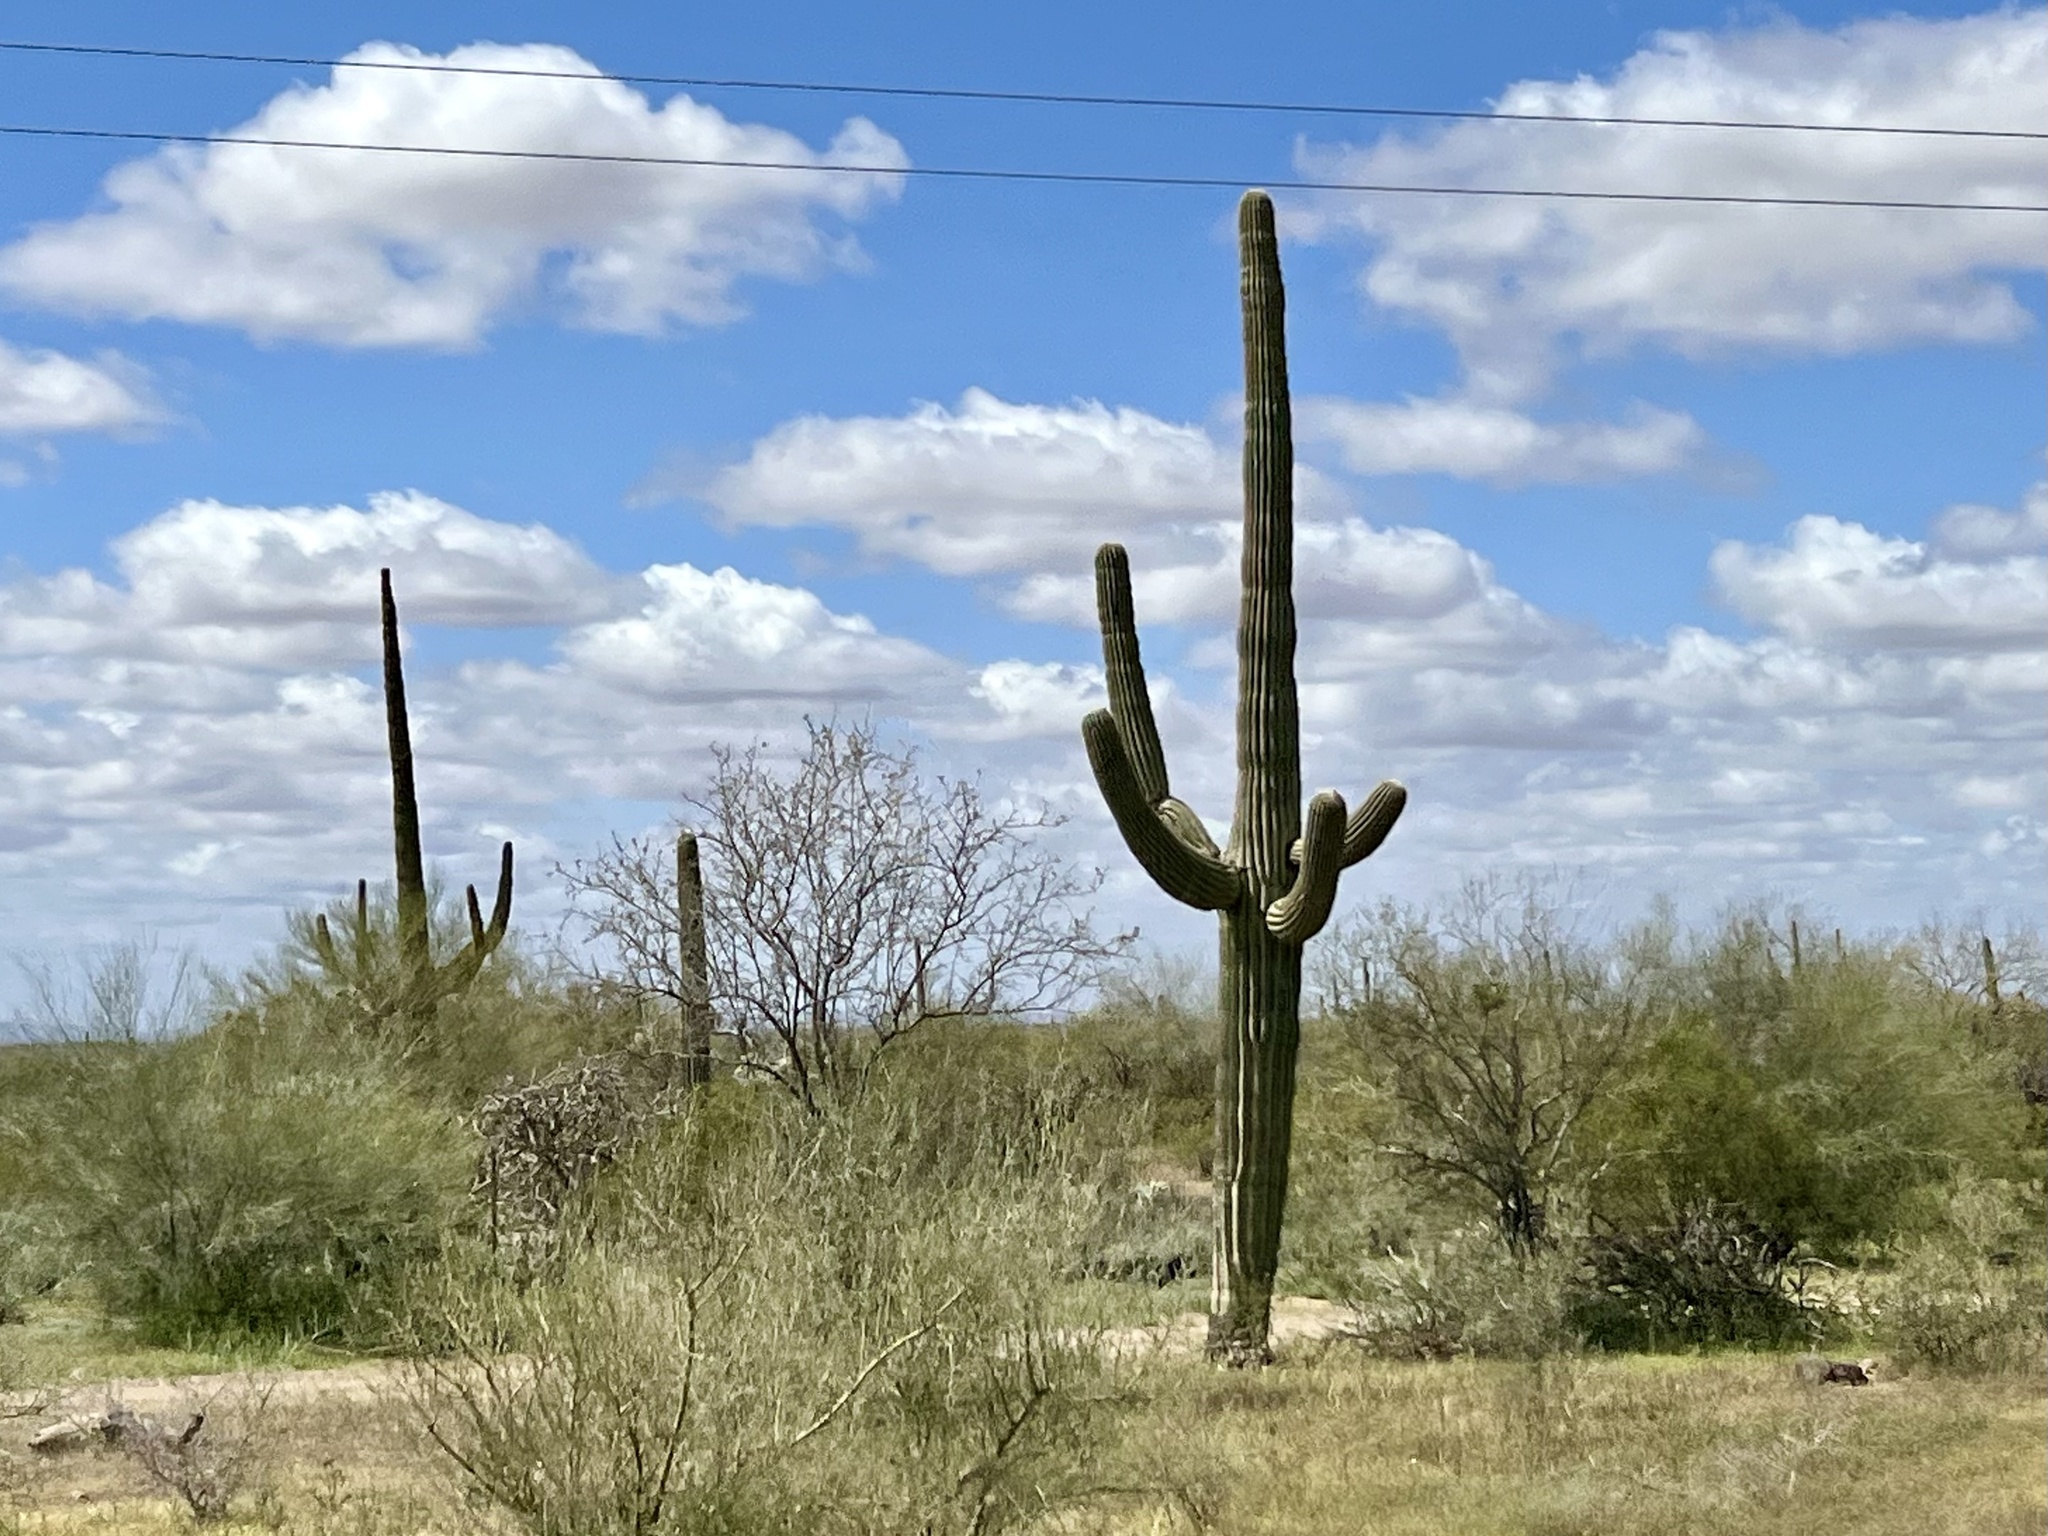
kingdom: Plantae
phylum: Tracheophyta
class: Magnoliopsida
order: Caryophyllales
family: Cactaceae
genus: Carnegiea
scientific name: Carnegiea gigantea
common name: Saguaro
